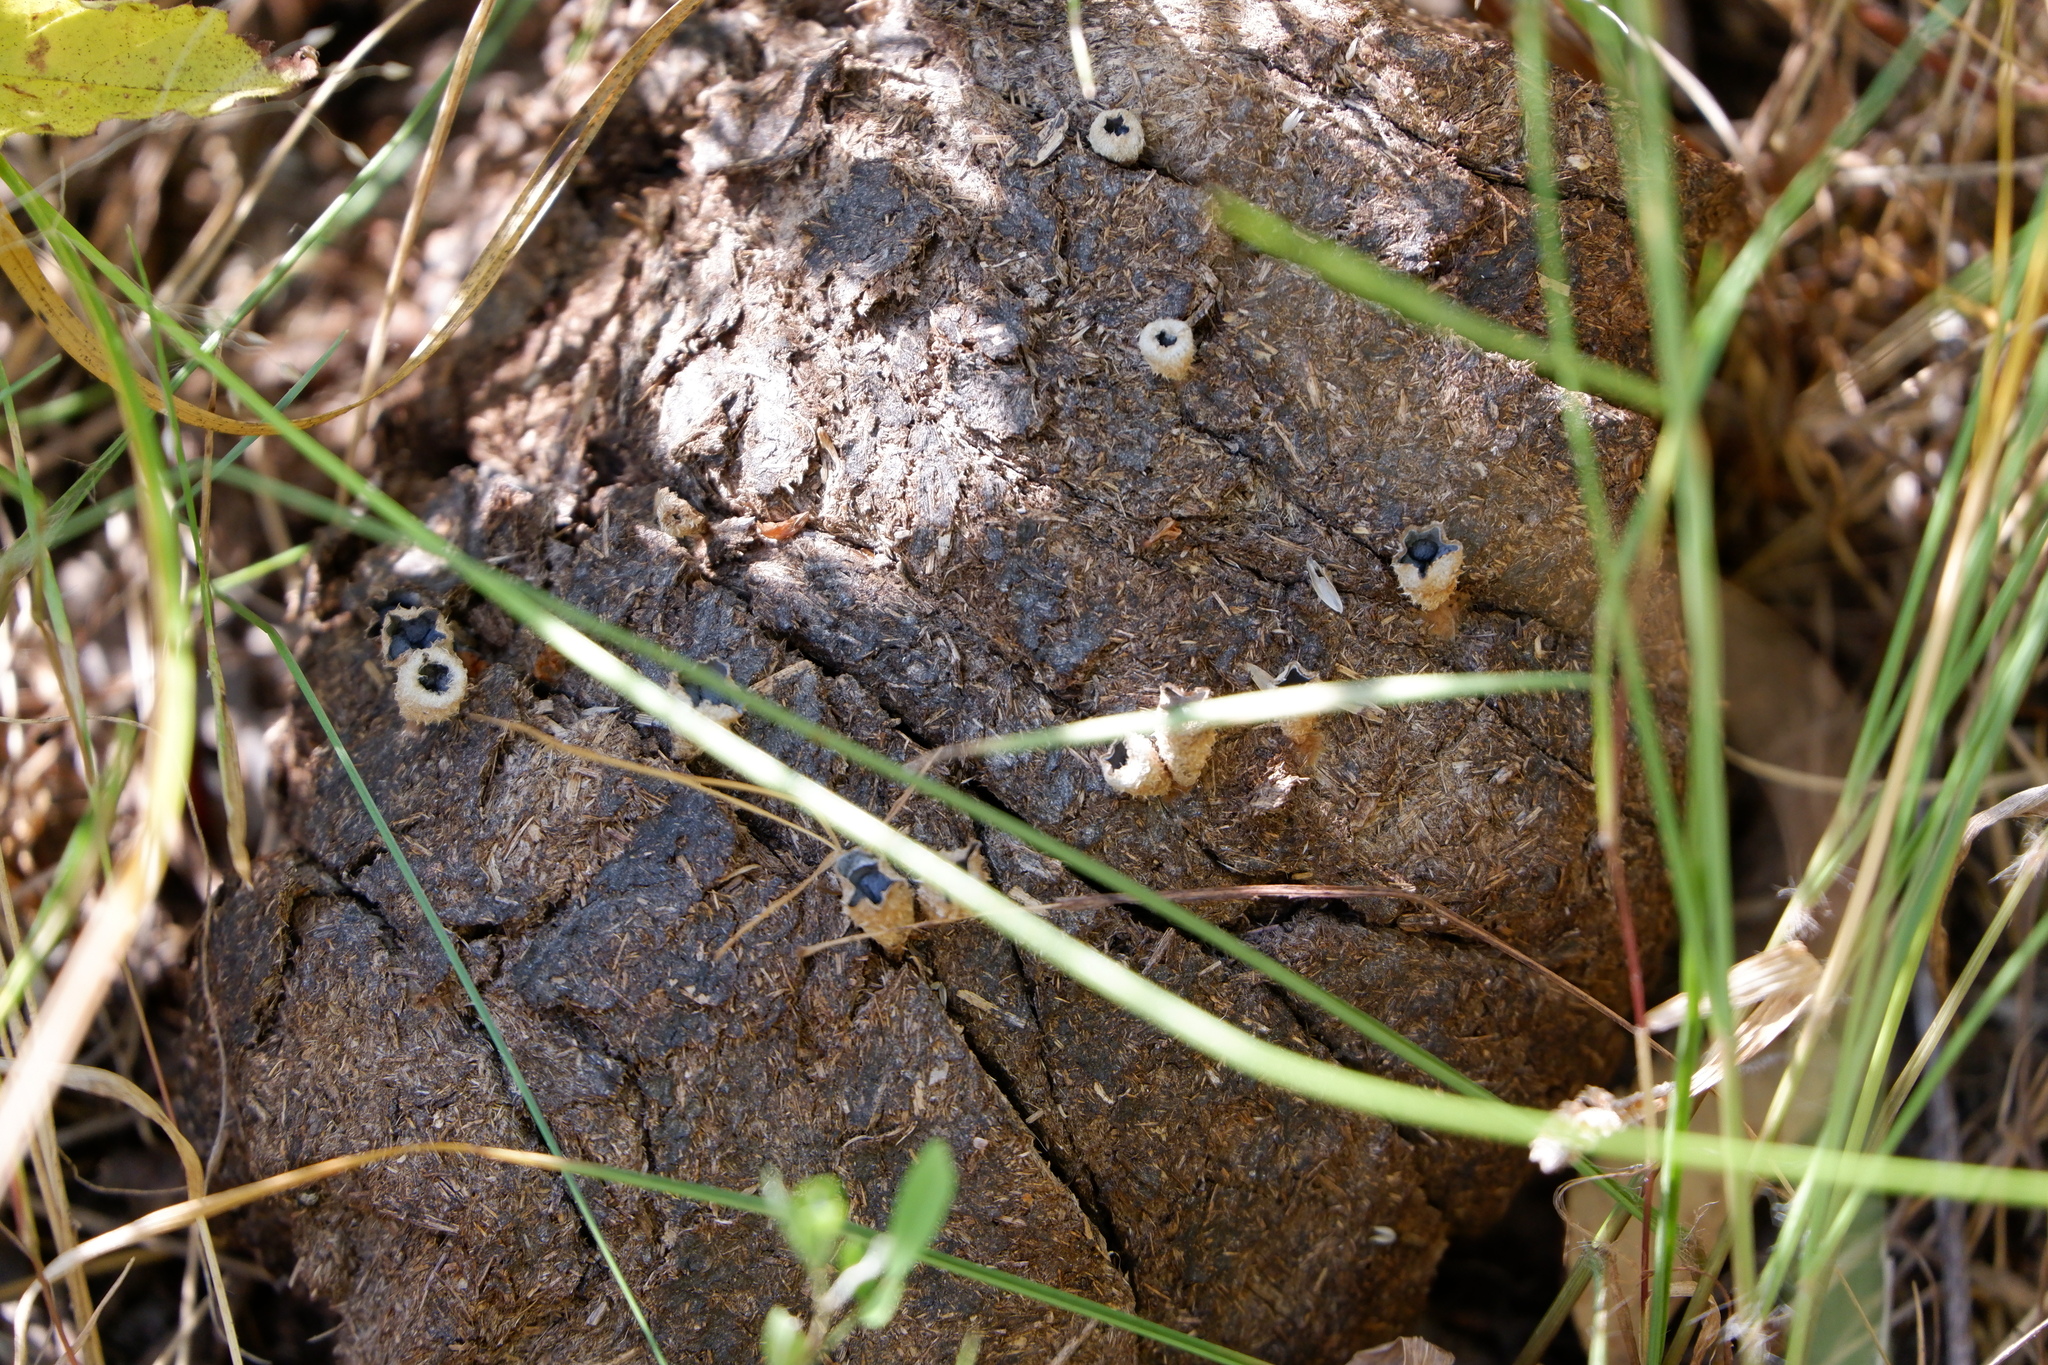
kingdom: Fungi
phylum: Basidiomycota
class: Agaricomycetes
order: Agaricales
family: Agaricaceae
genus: Cyathus
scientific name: Cyathus stercoreus
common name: Dung bird's nest
